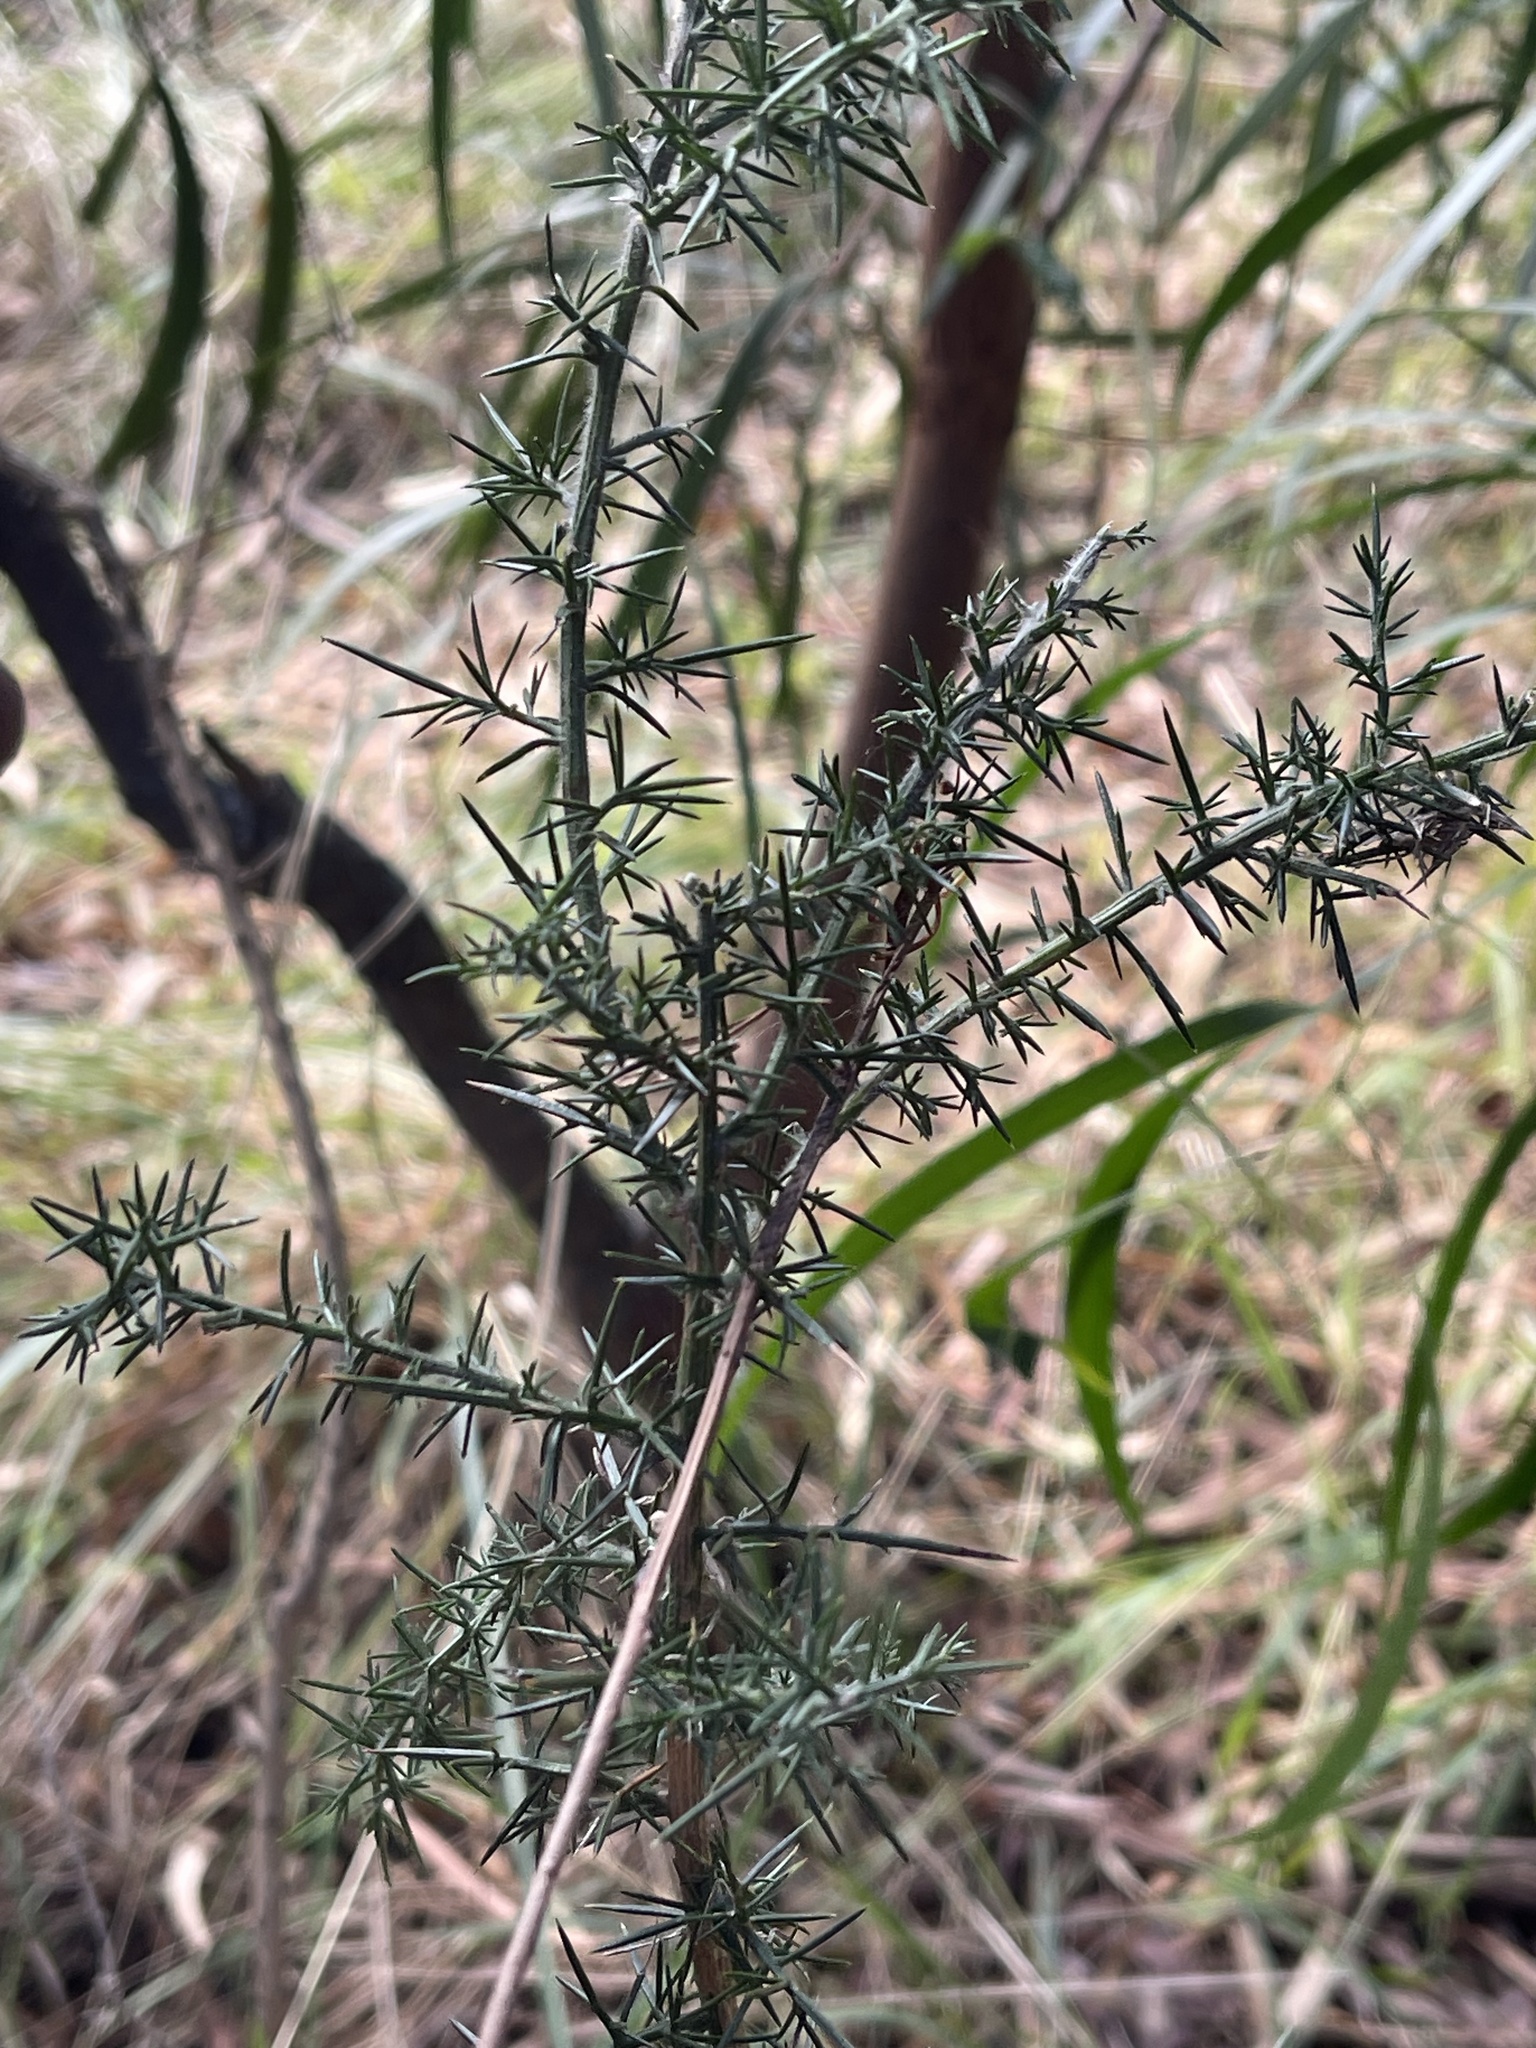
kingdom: Plantae
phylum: Tracheophyta
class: Magnoliopsida
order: Fabales
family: Fabaceae
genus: Ulex
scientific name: Ulex europaeus
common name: Common gorse
